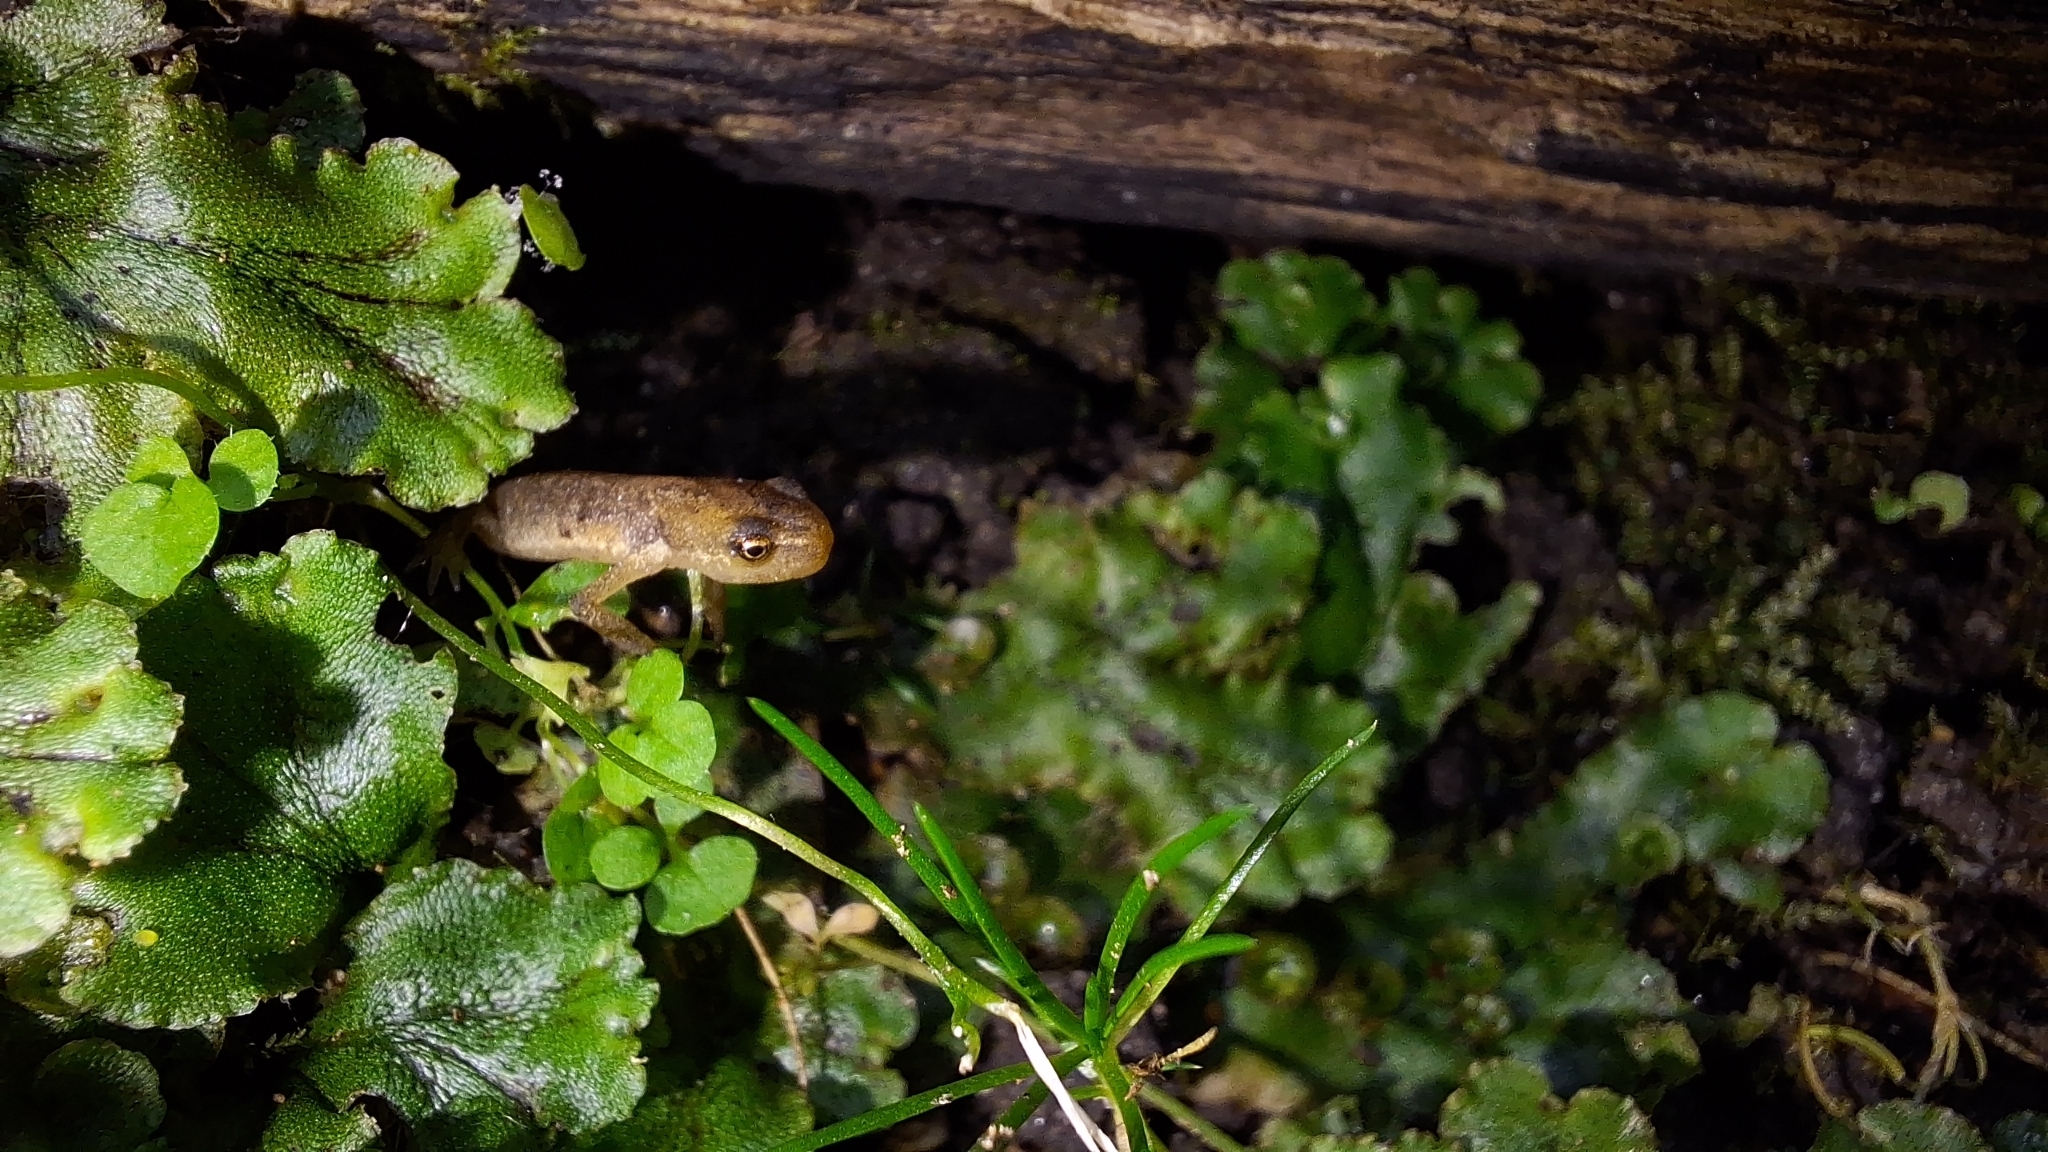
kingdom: Animalia
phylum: Chordata
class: Amphibia
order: Caudata
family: Salamandridae
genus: Lissotriton
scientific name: Lissotriton vulgaris
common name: Smooth newt
